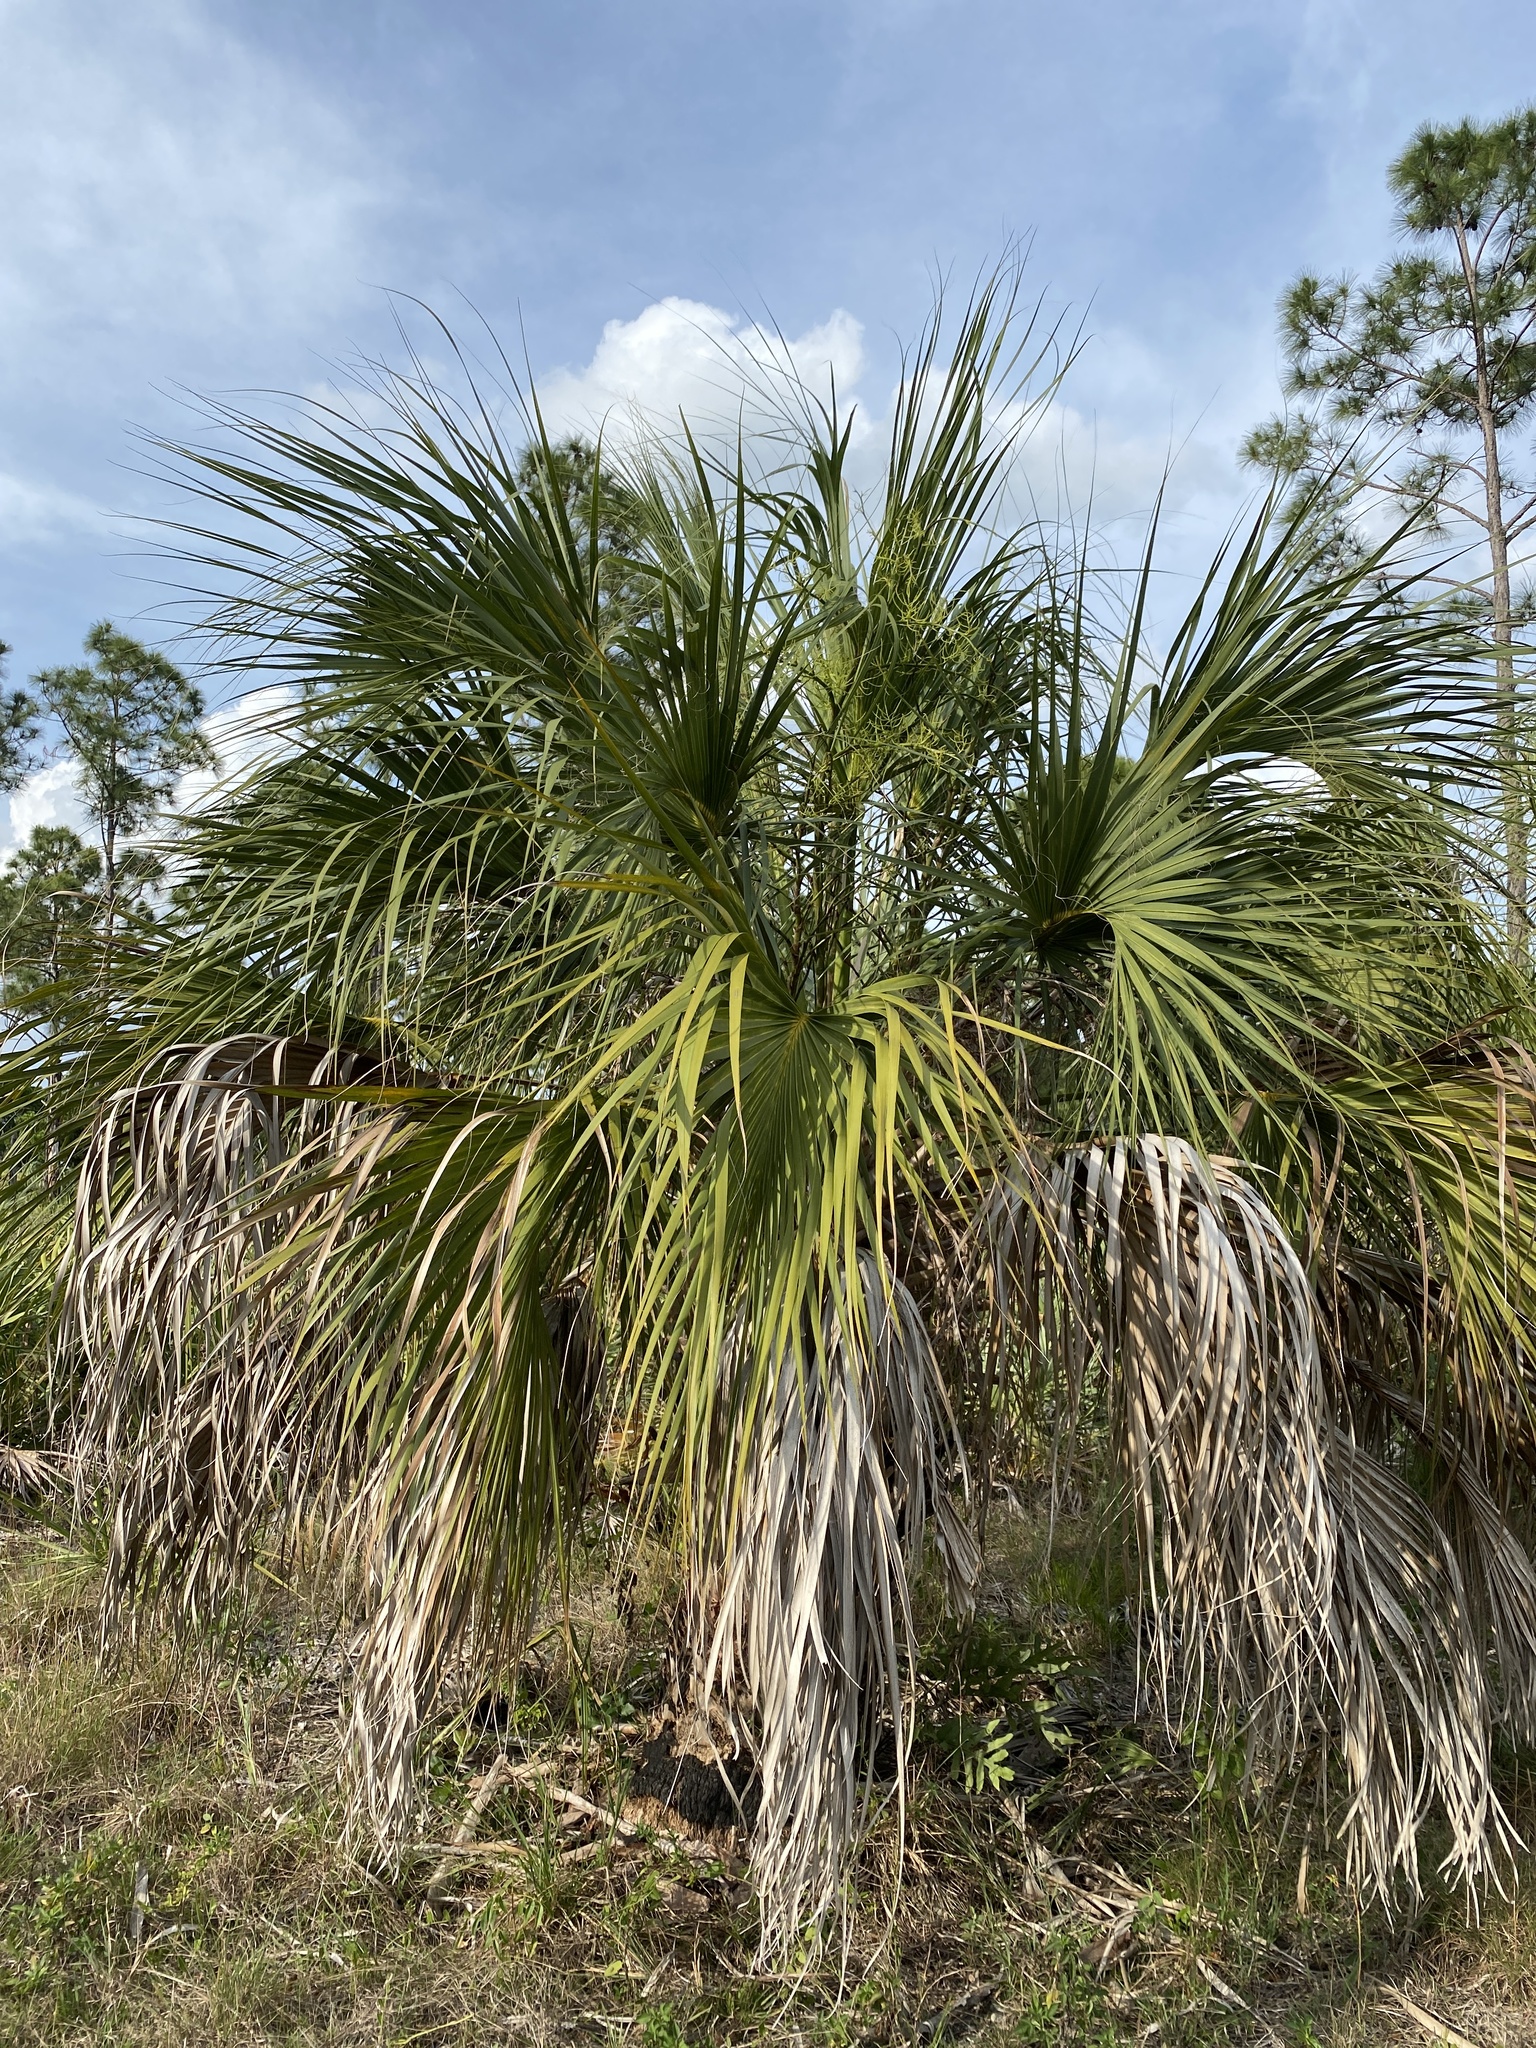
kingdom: Plantae
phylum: Tracheophyta
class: Liliopsida
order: Arecales
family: Arecaceae
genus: Sabal
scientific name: Sabal palmetto
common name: Blue palmetto
